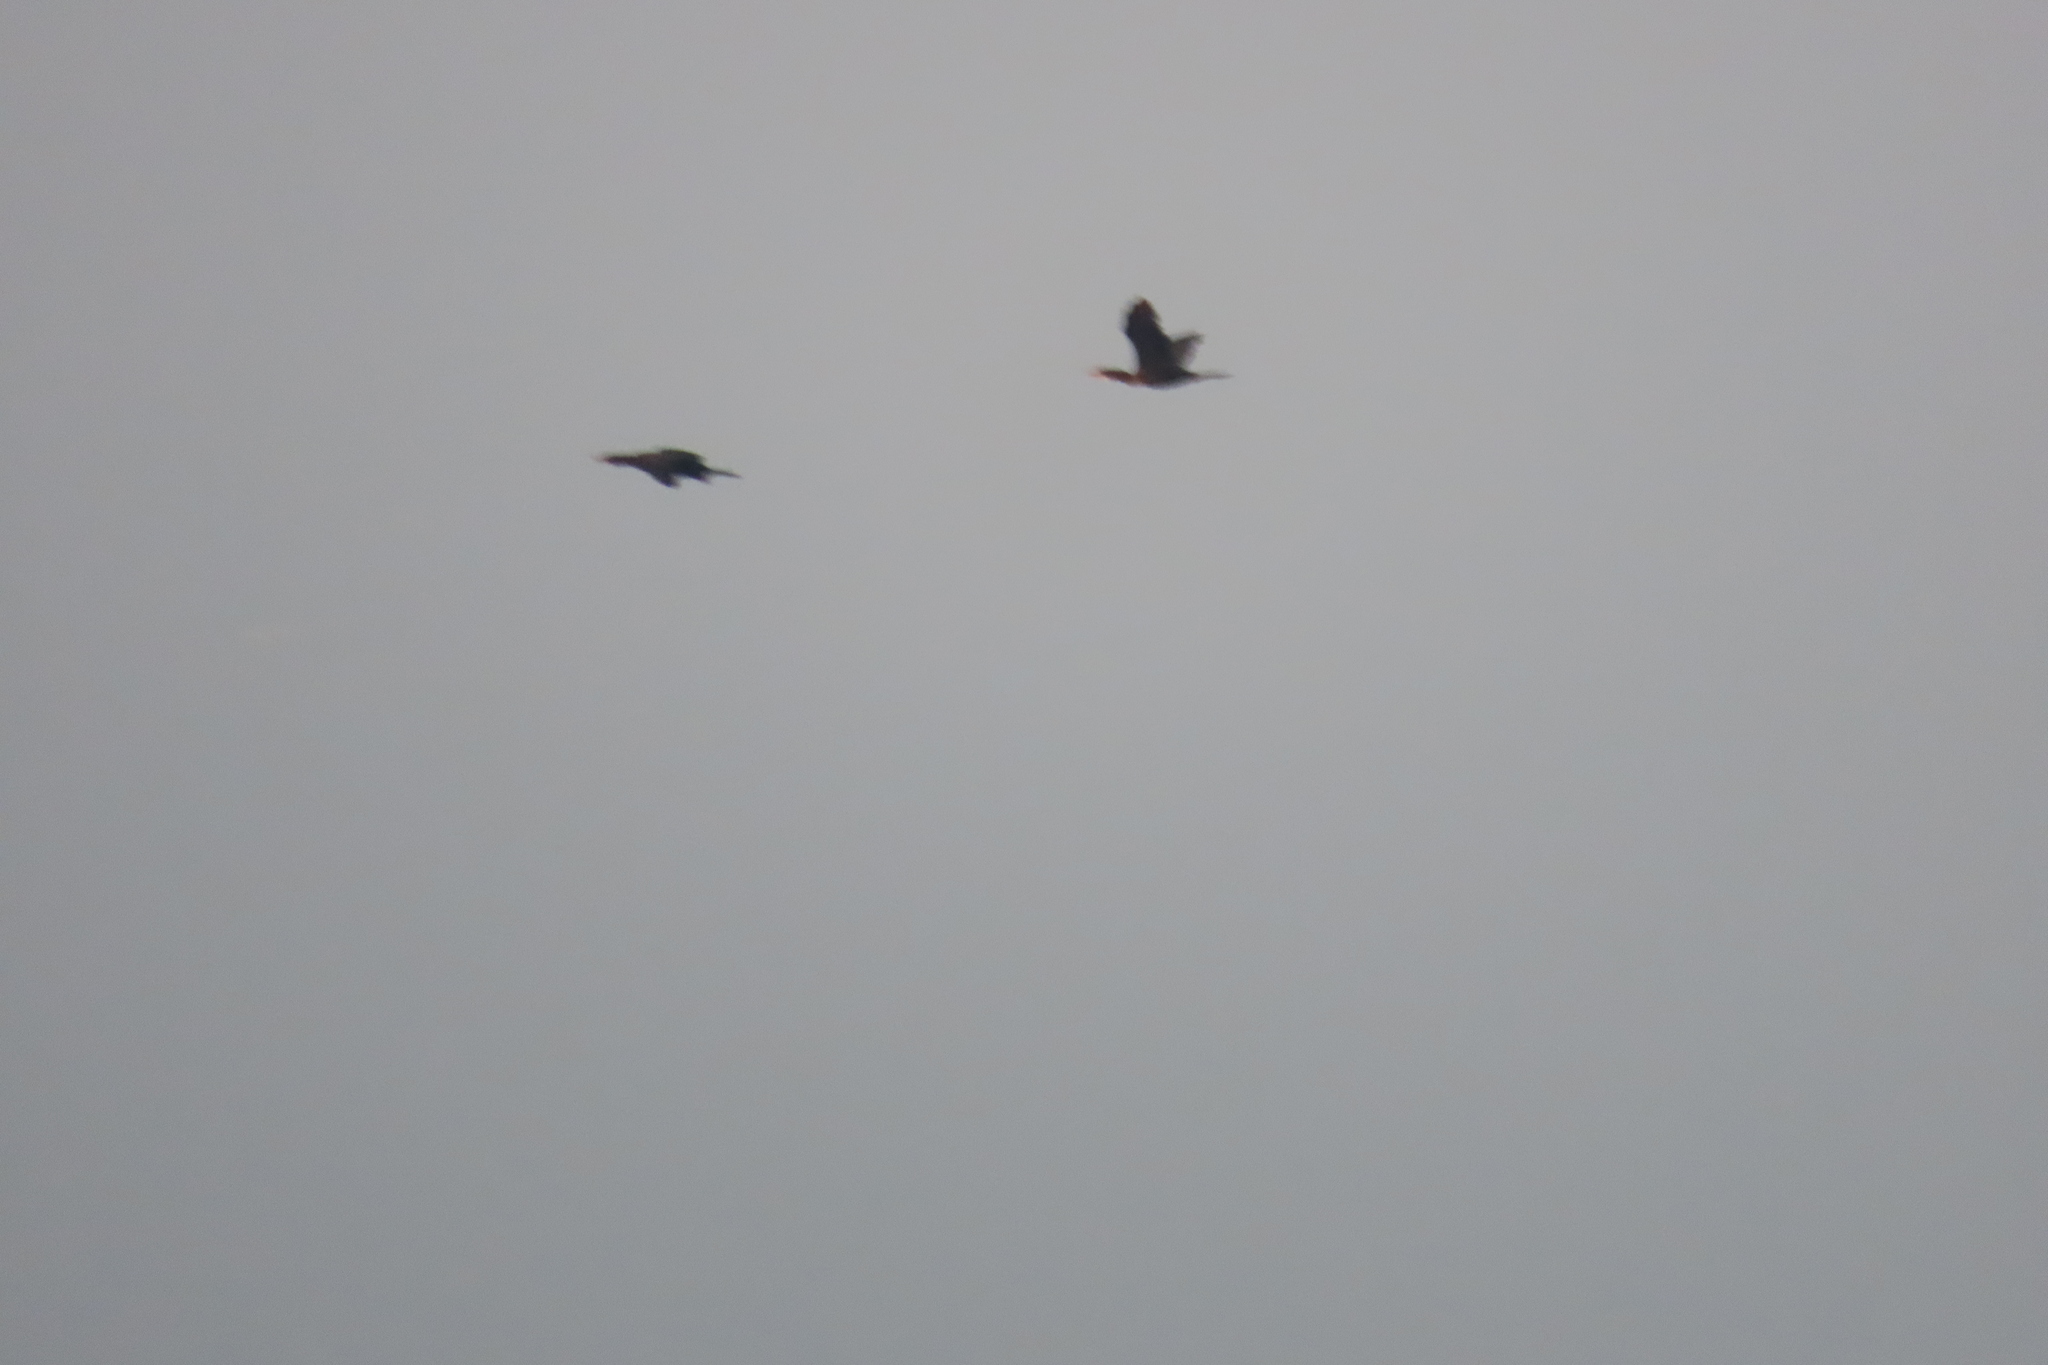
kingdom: Animalia
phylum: Chordata
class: Aves
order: Suliformes
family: Phalacrocoracidae
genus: Microcarbo
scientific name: Microcarbo niger
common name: Little cormorant
